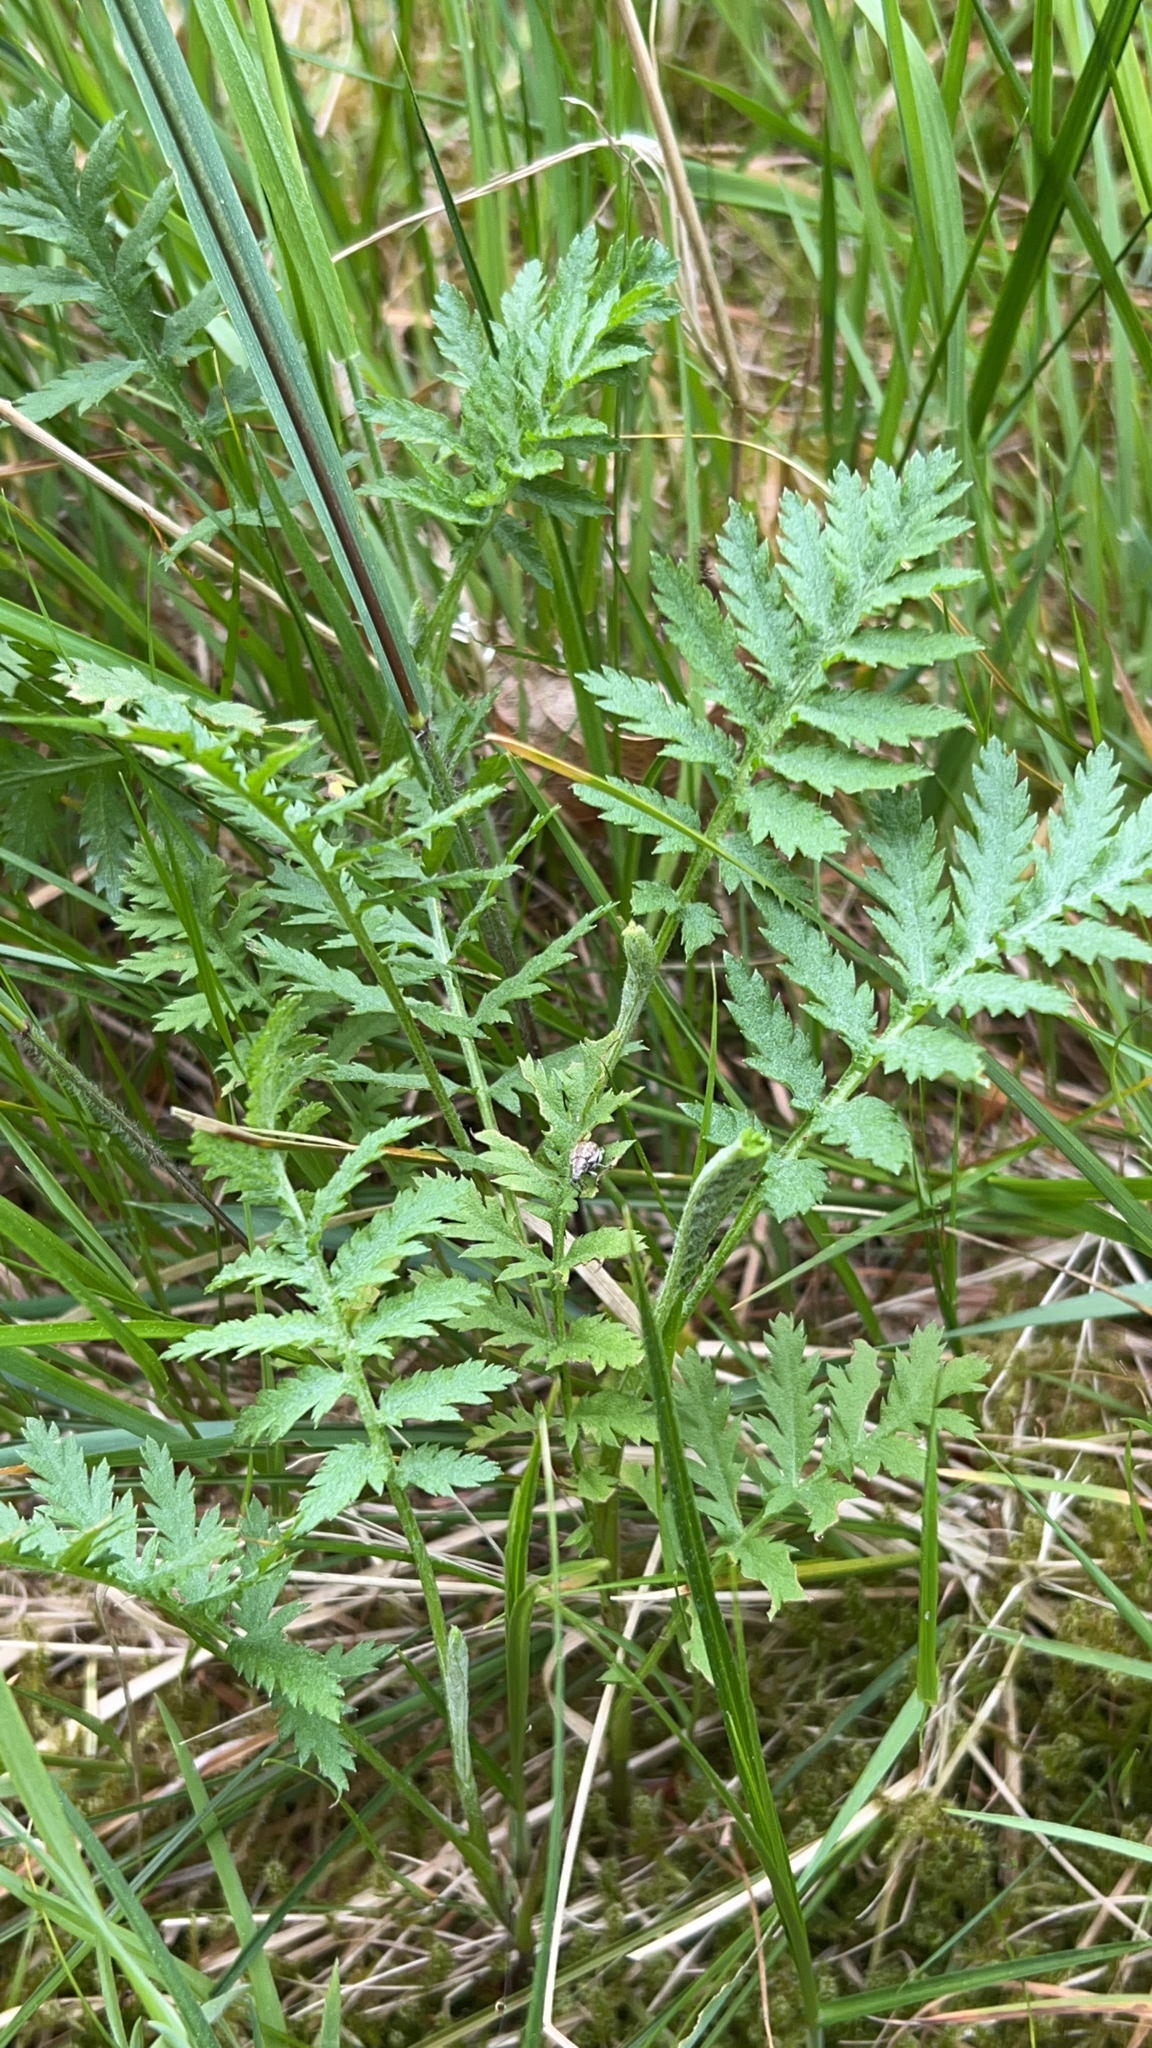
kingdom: Plantae
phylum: Tracheophyta
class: Magnoliopsida
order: Asterales
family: Asteraceae
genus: Tanacetum
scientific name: Tanacetum vulgare
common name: Common tansy
